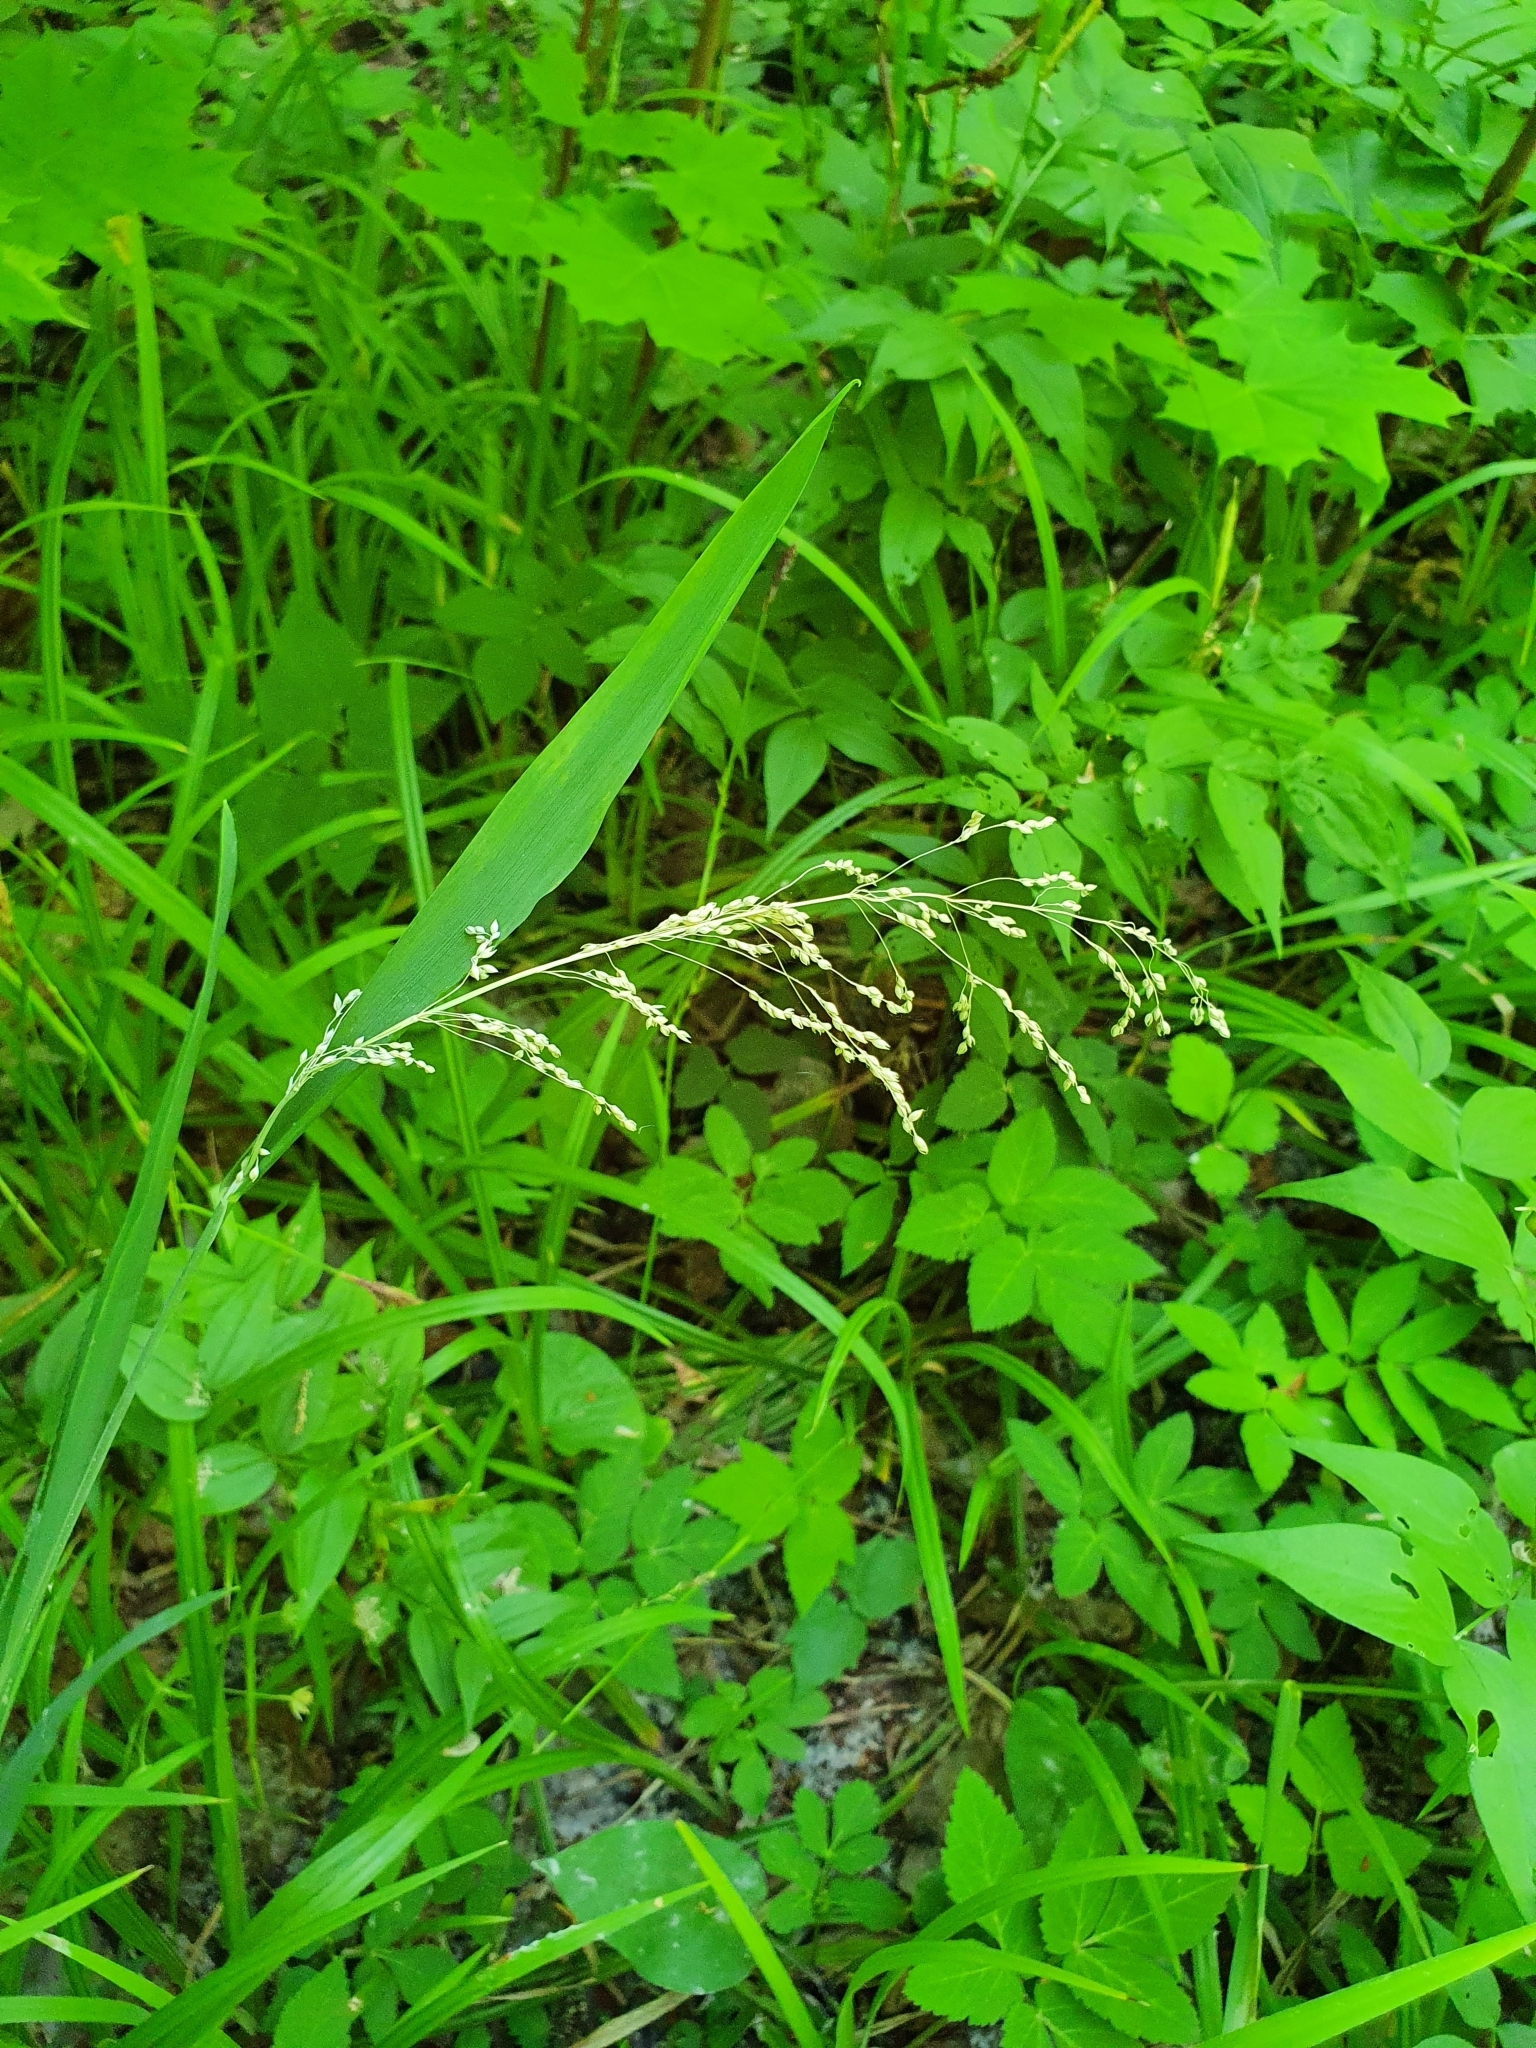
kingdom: Plantae
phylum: Tracheophyta
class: Liliopsida
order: Poales
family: Poaceae
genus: Milium
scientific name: Milium effusum
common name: Wood millet
